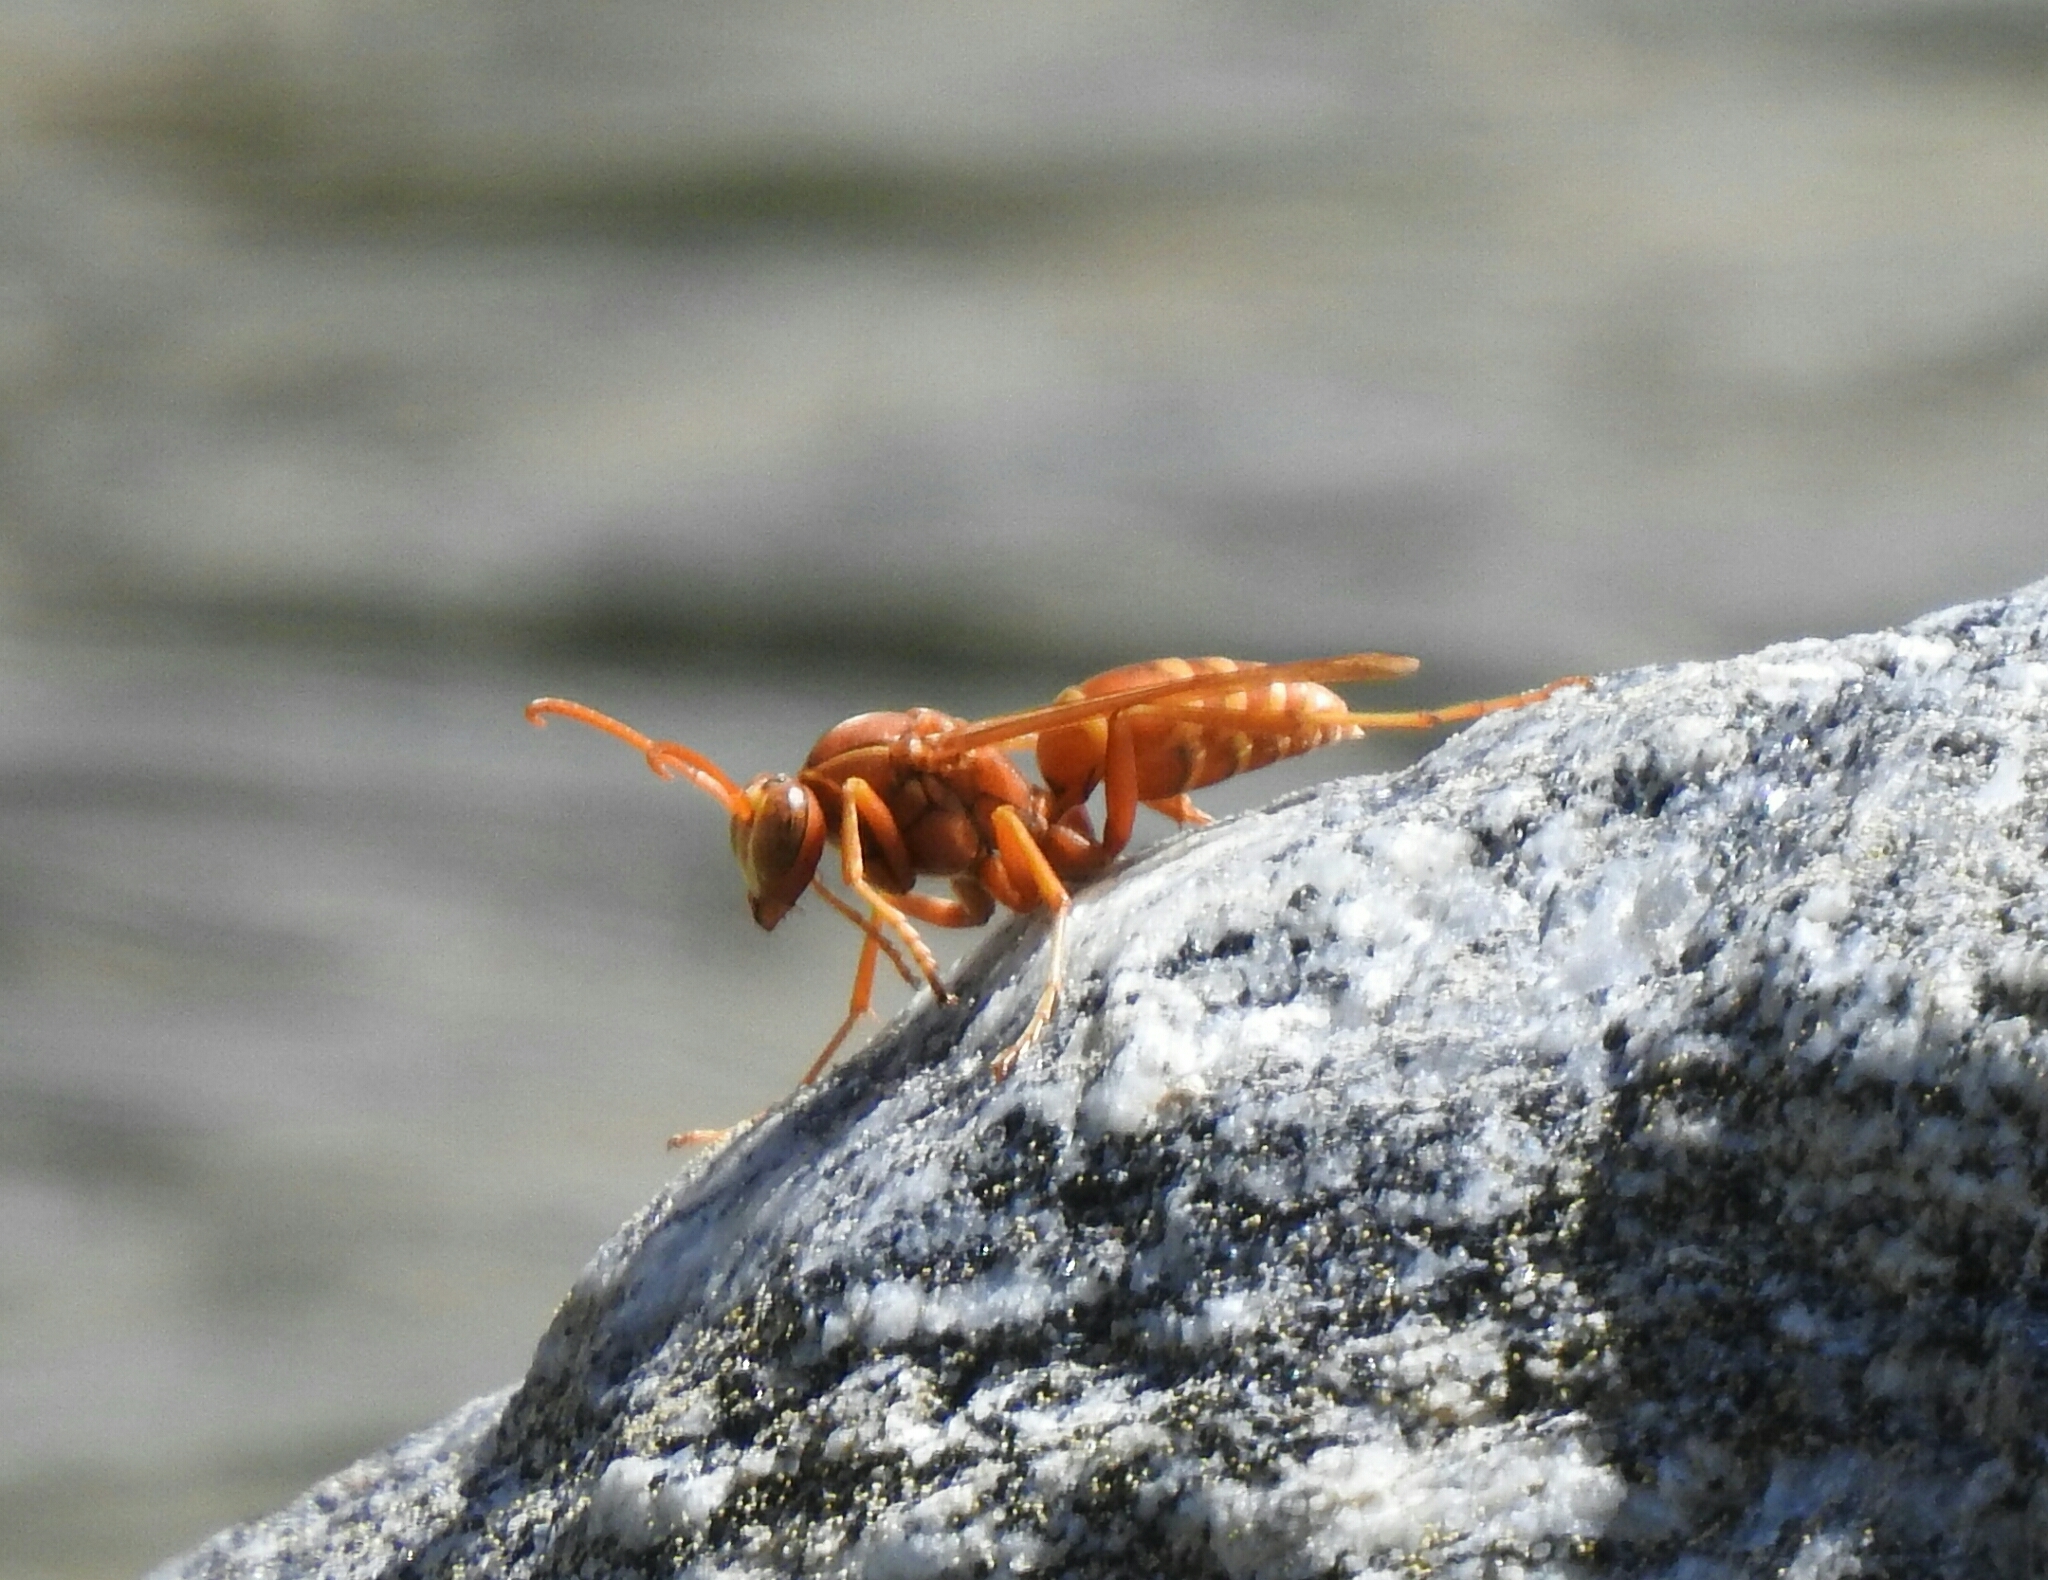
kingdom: Animalia
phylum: Arthropoda
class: Insecta
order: Hymenoptera
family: Eumenidae
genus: Polistes
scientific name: Polistes rossi
